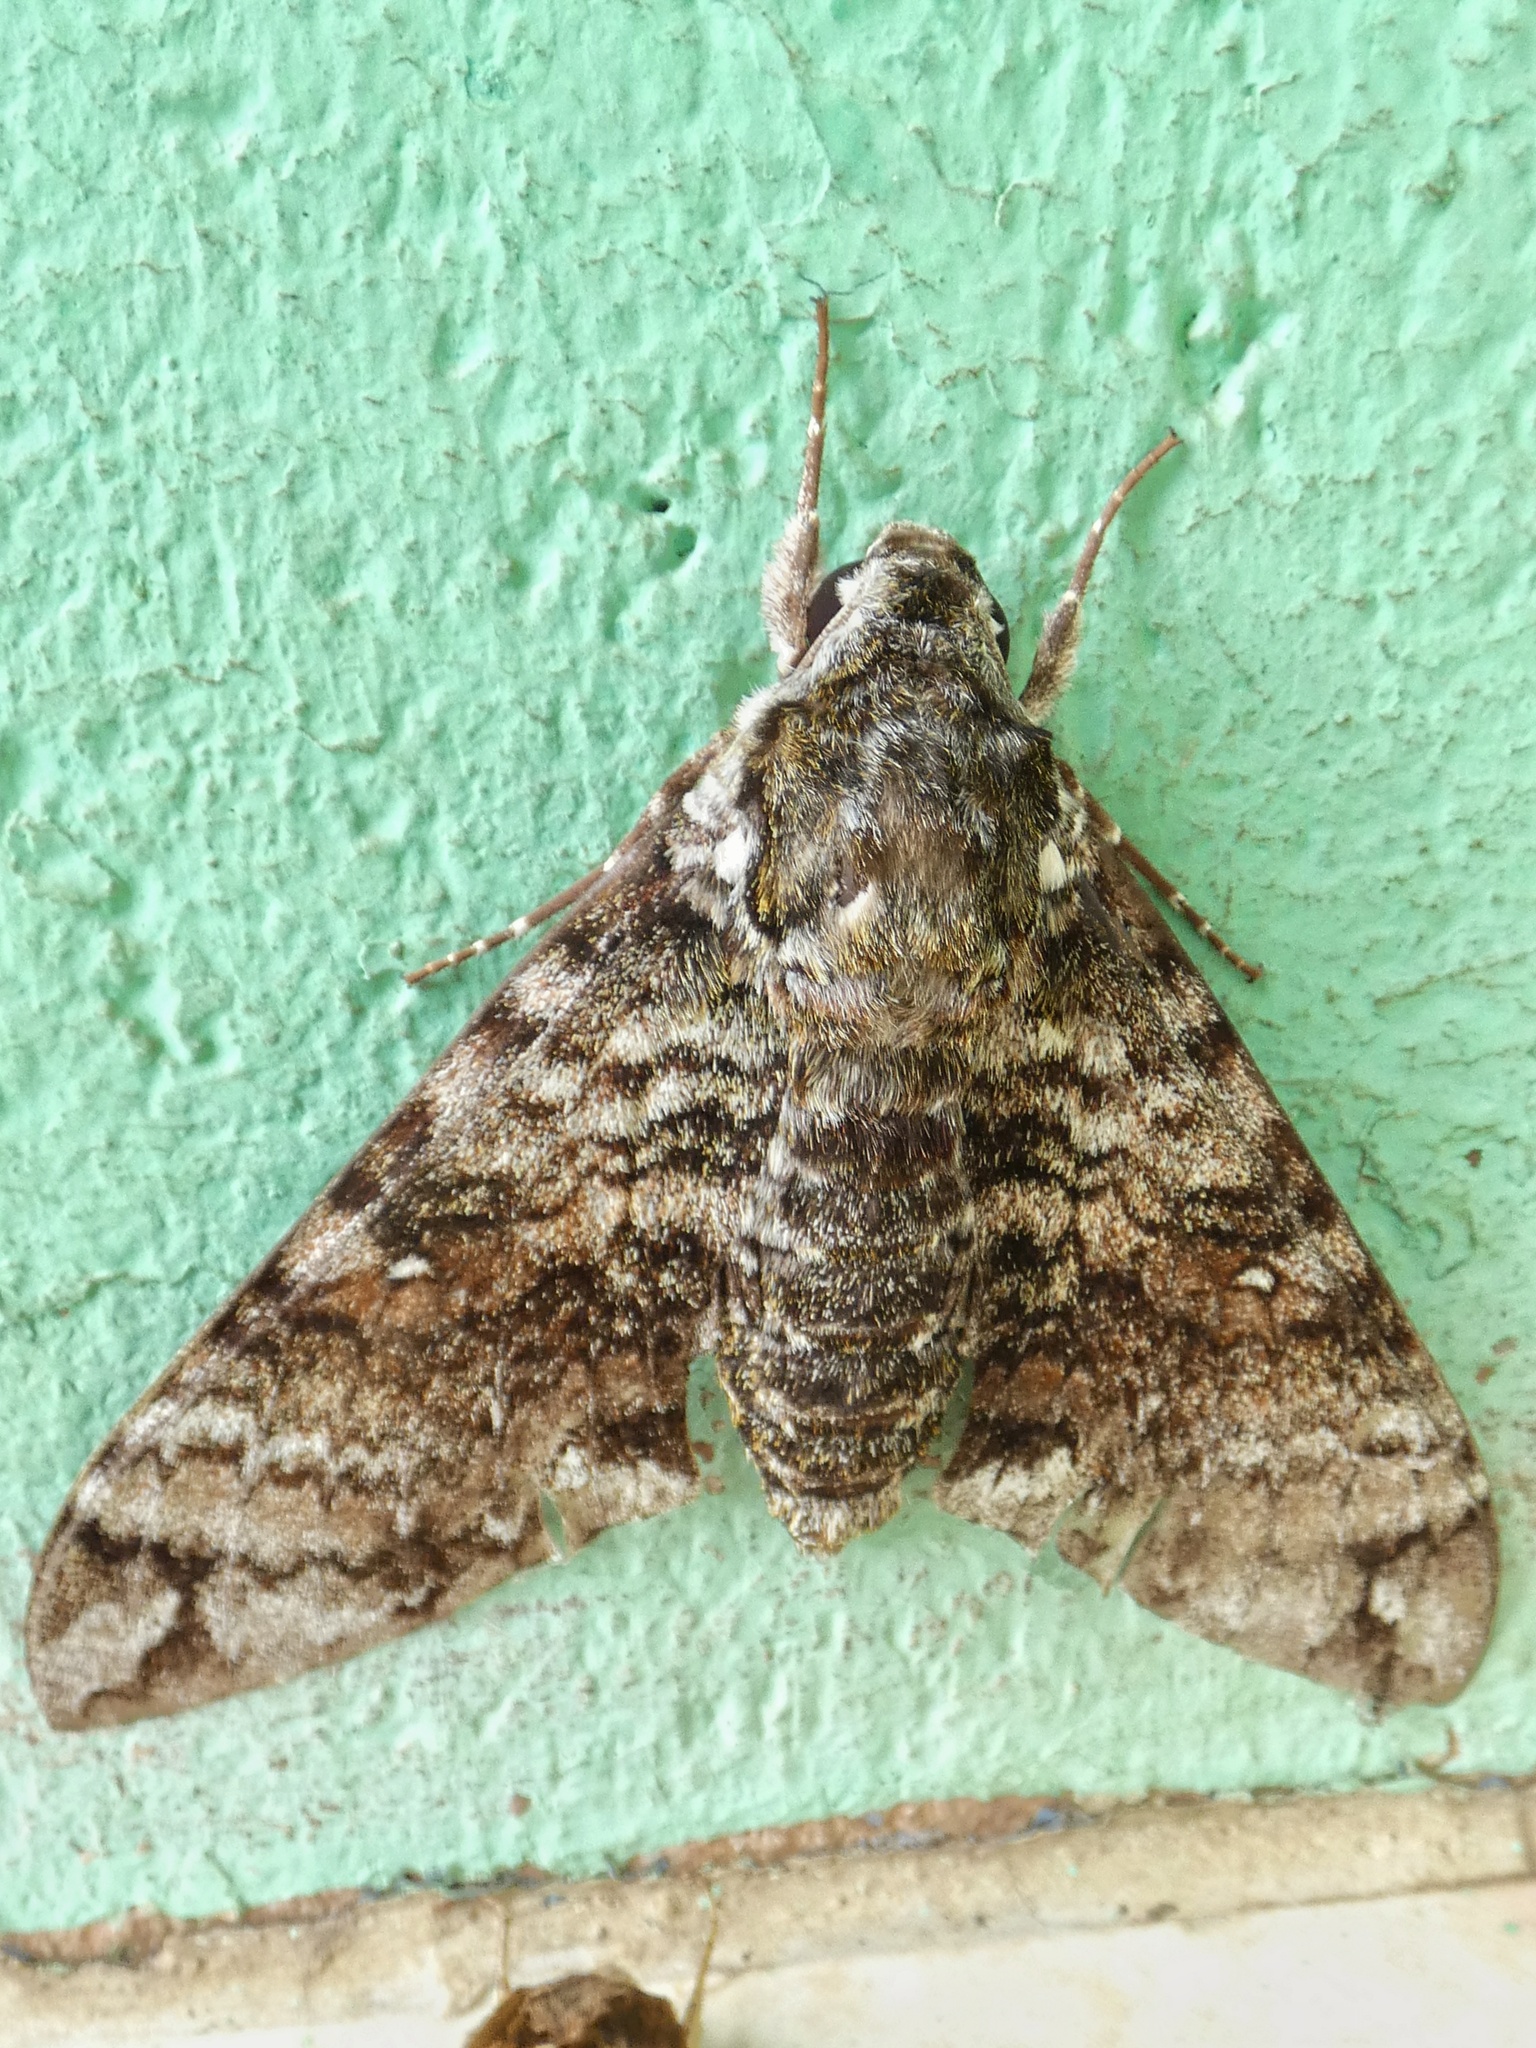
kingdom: Animalia
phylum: Arthropoda
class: Insecta
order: Lepidoptera
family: Sphingidae
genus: Manduca
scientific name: Manduca schausi
